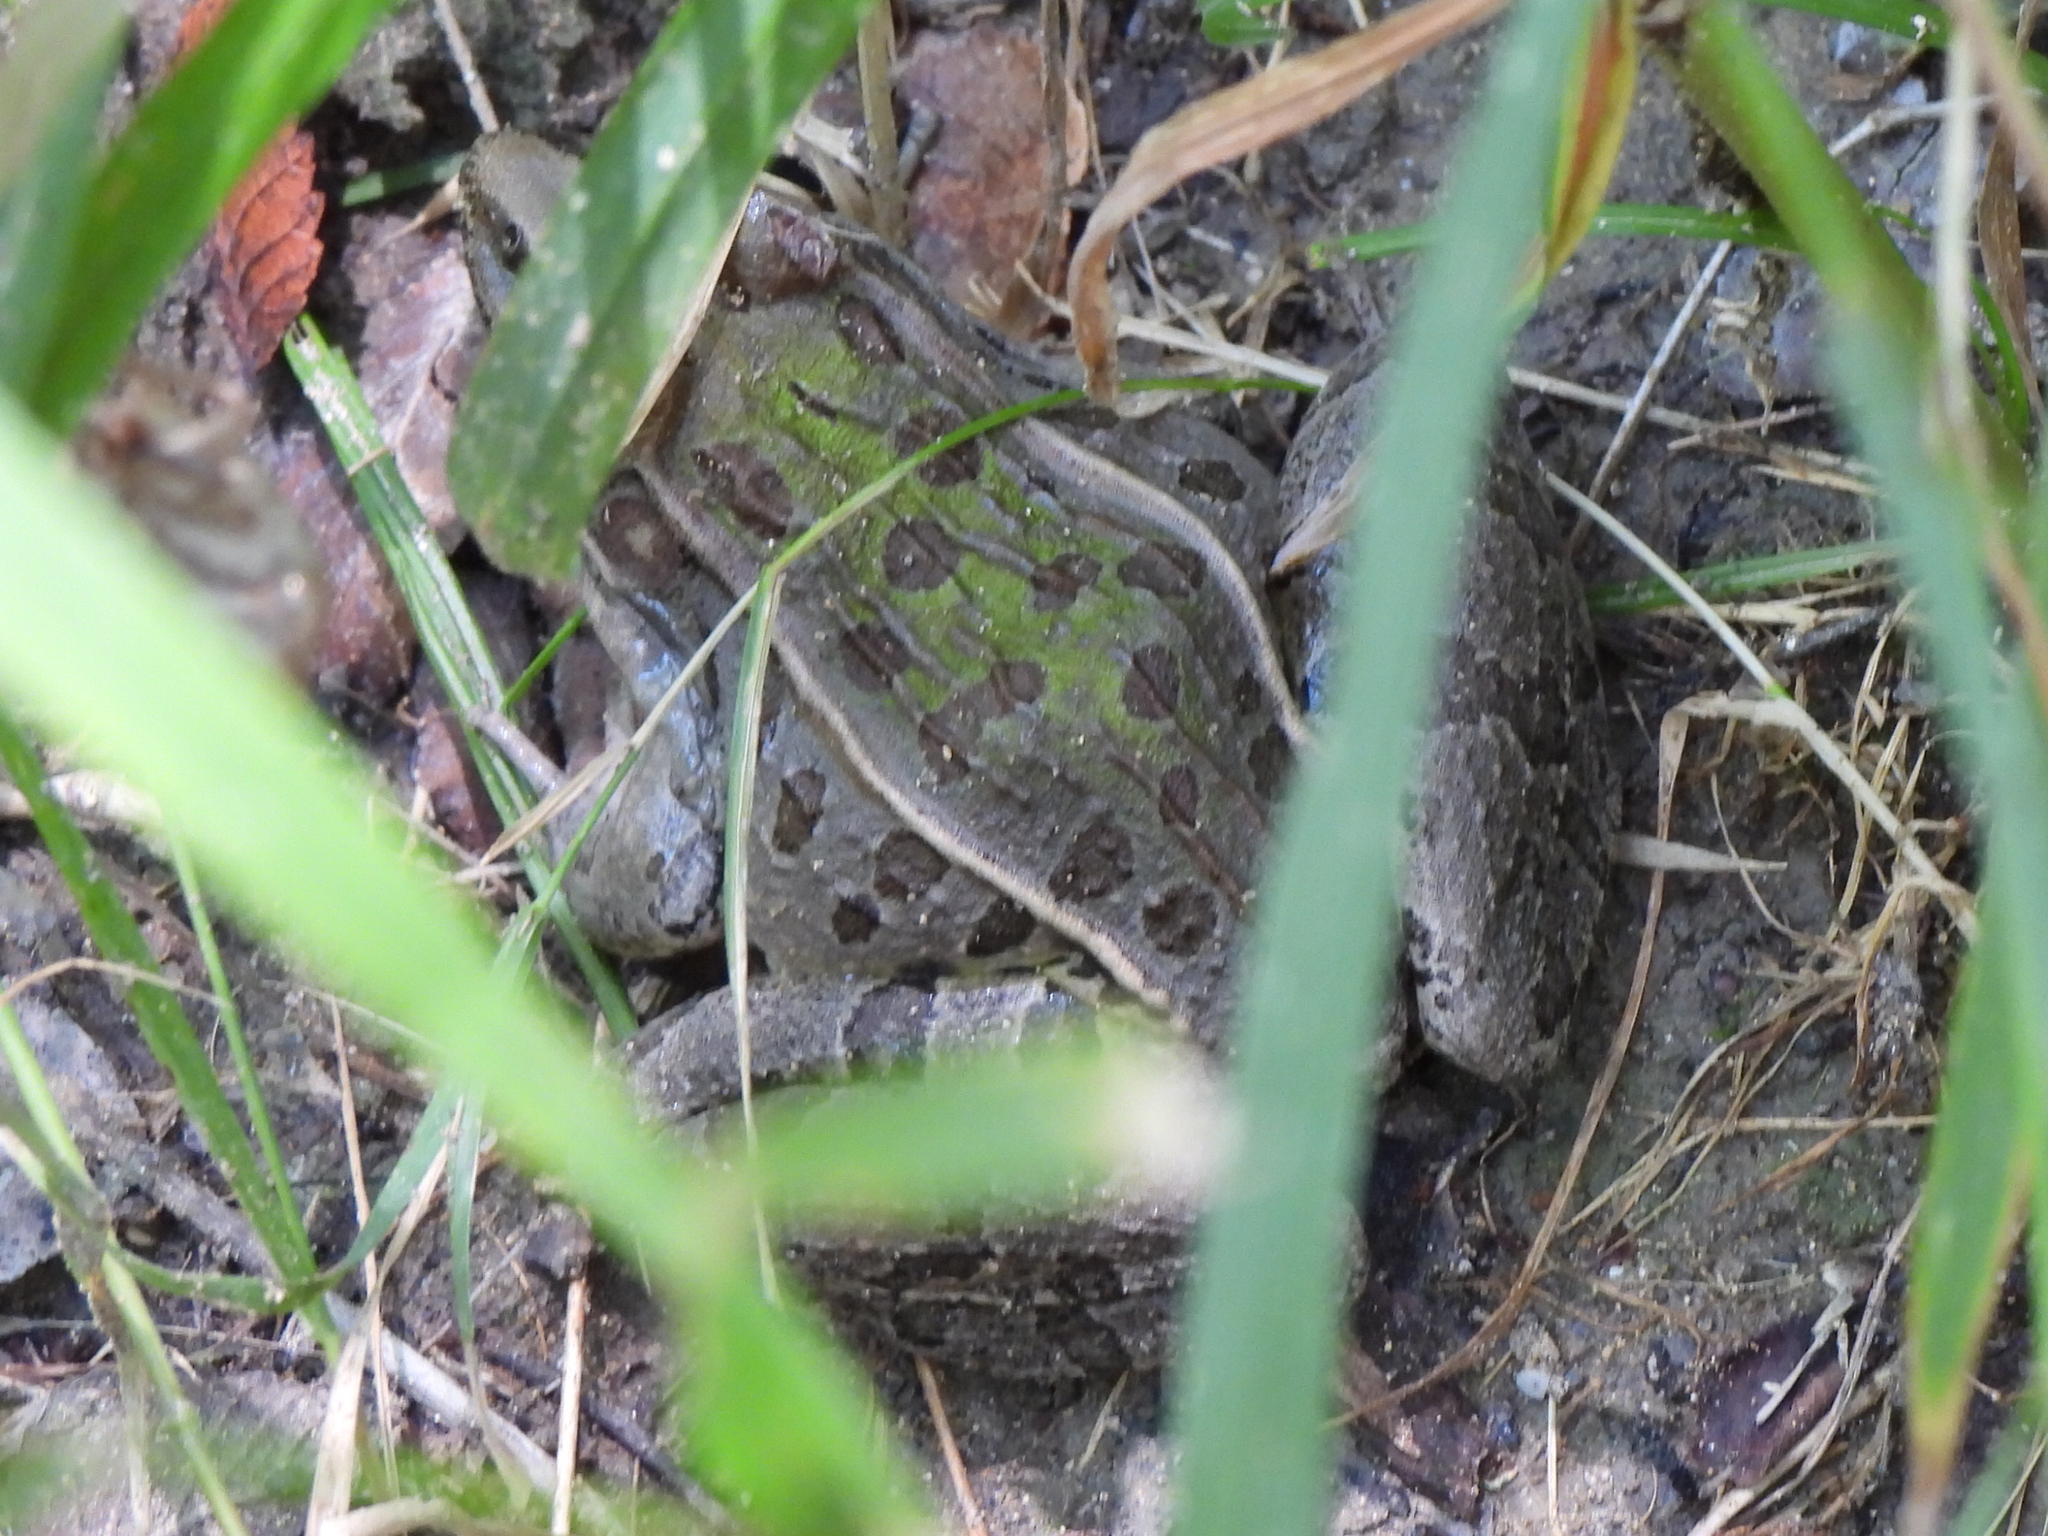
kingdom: Animalia
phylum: Chordata
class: Amphibia
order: Anura
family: Ranidae
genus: Lithobates
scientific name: Lithobates sphenocephalus
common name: Southern leopard frog
